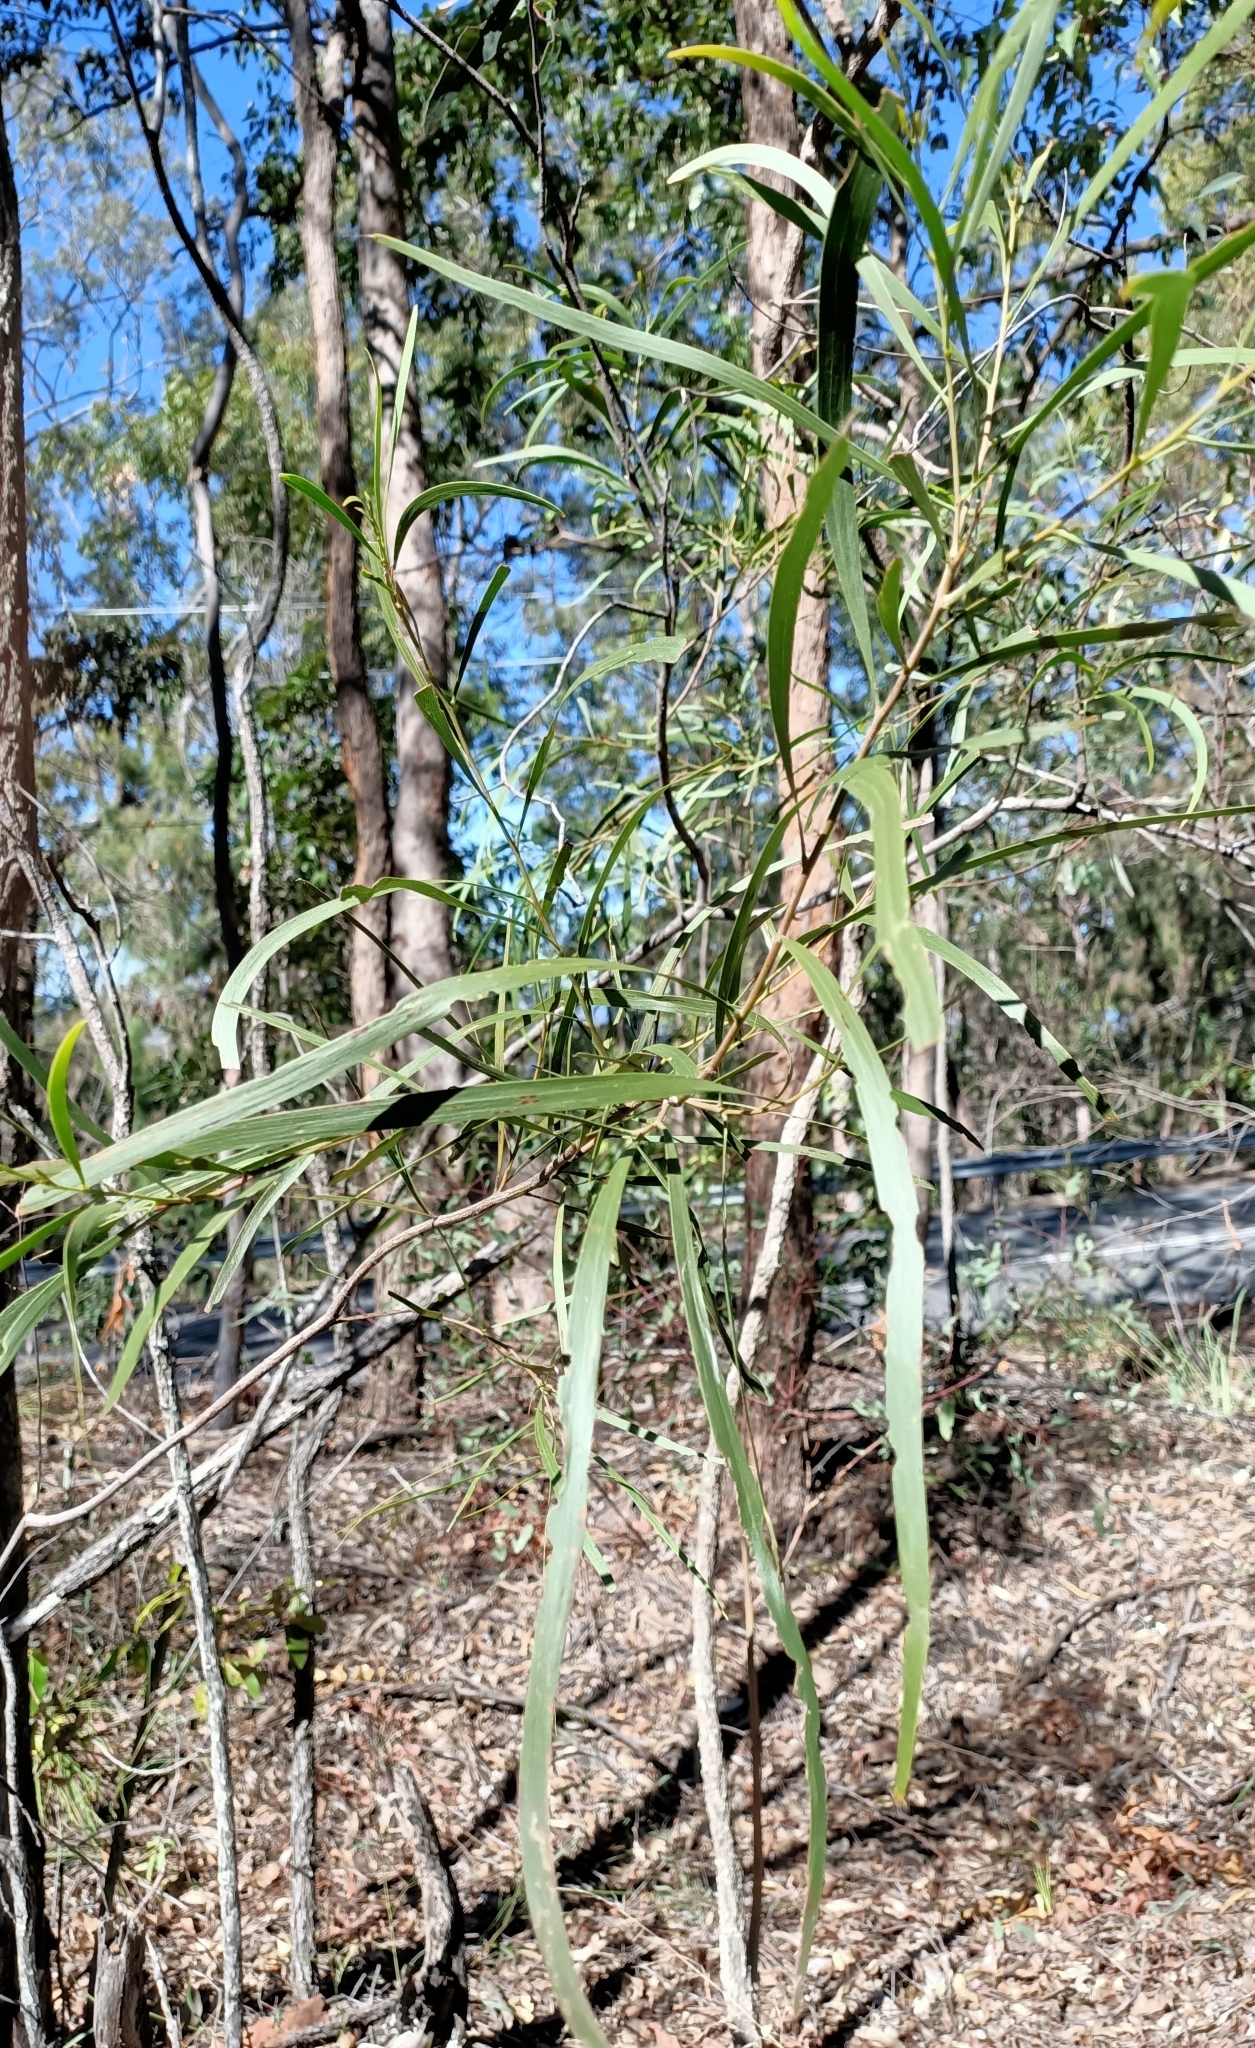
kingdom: Plantae
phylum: Tracheophyta
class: Magnoliopsida
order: Fabales
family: Fabaceae
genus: Acacia
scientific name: Acacia longissima
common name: Longleaf wattle
